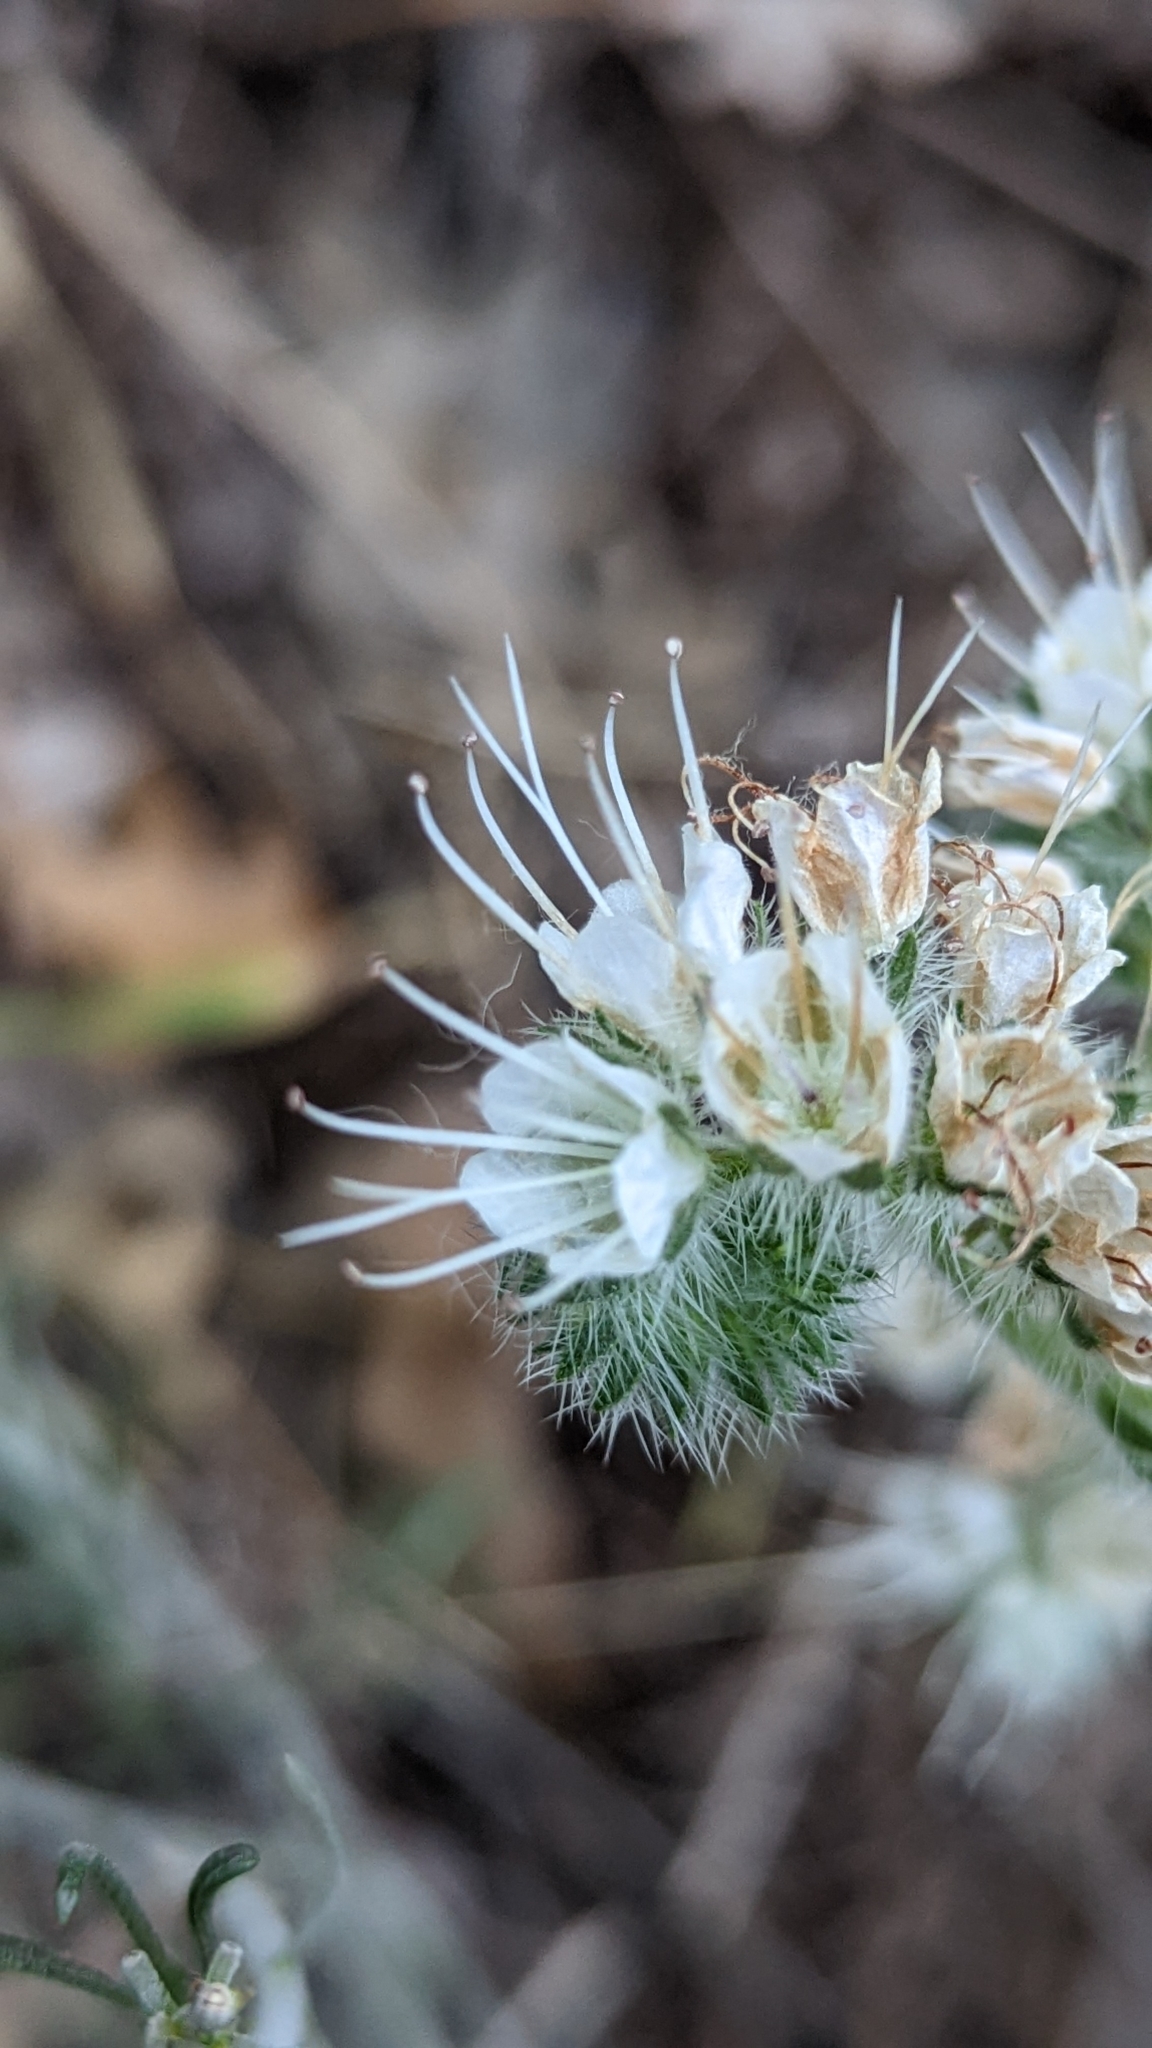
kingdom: Plantae
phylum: Tracheophyta
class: Magnoliopsida
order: Boraginales
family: Hydrophyllaceae
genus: Phacelia
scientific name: Phacelia heterophylla
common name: Variable-leaved phacelia
